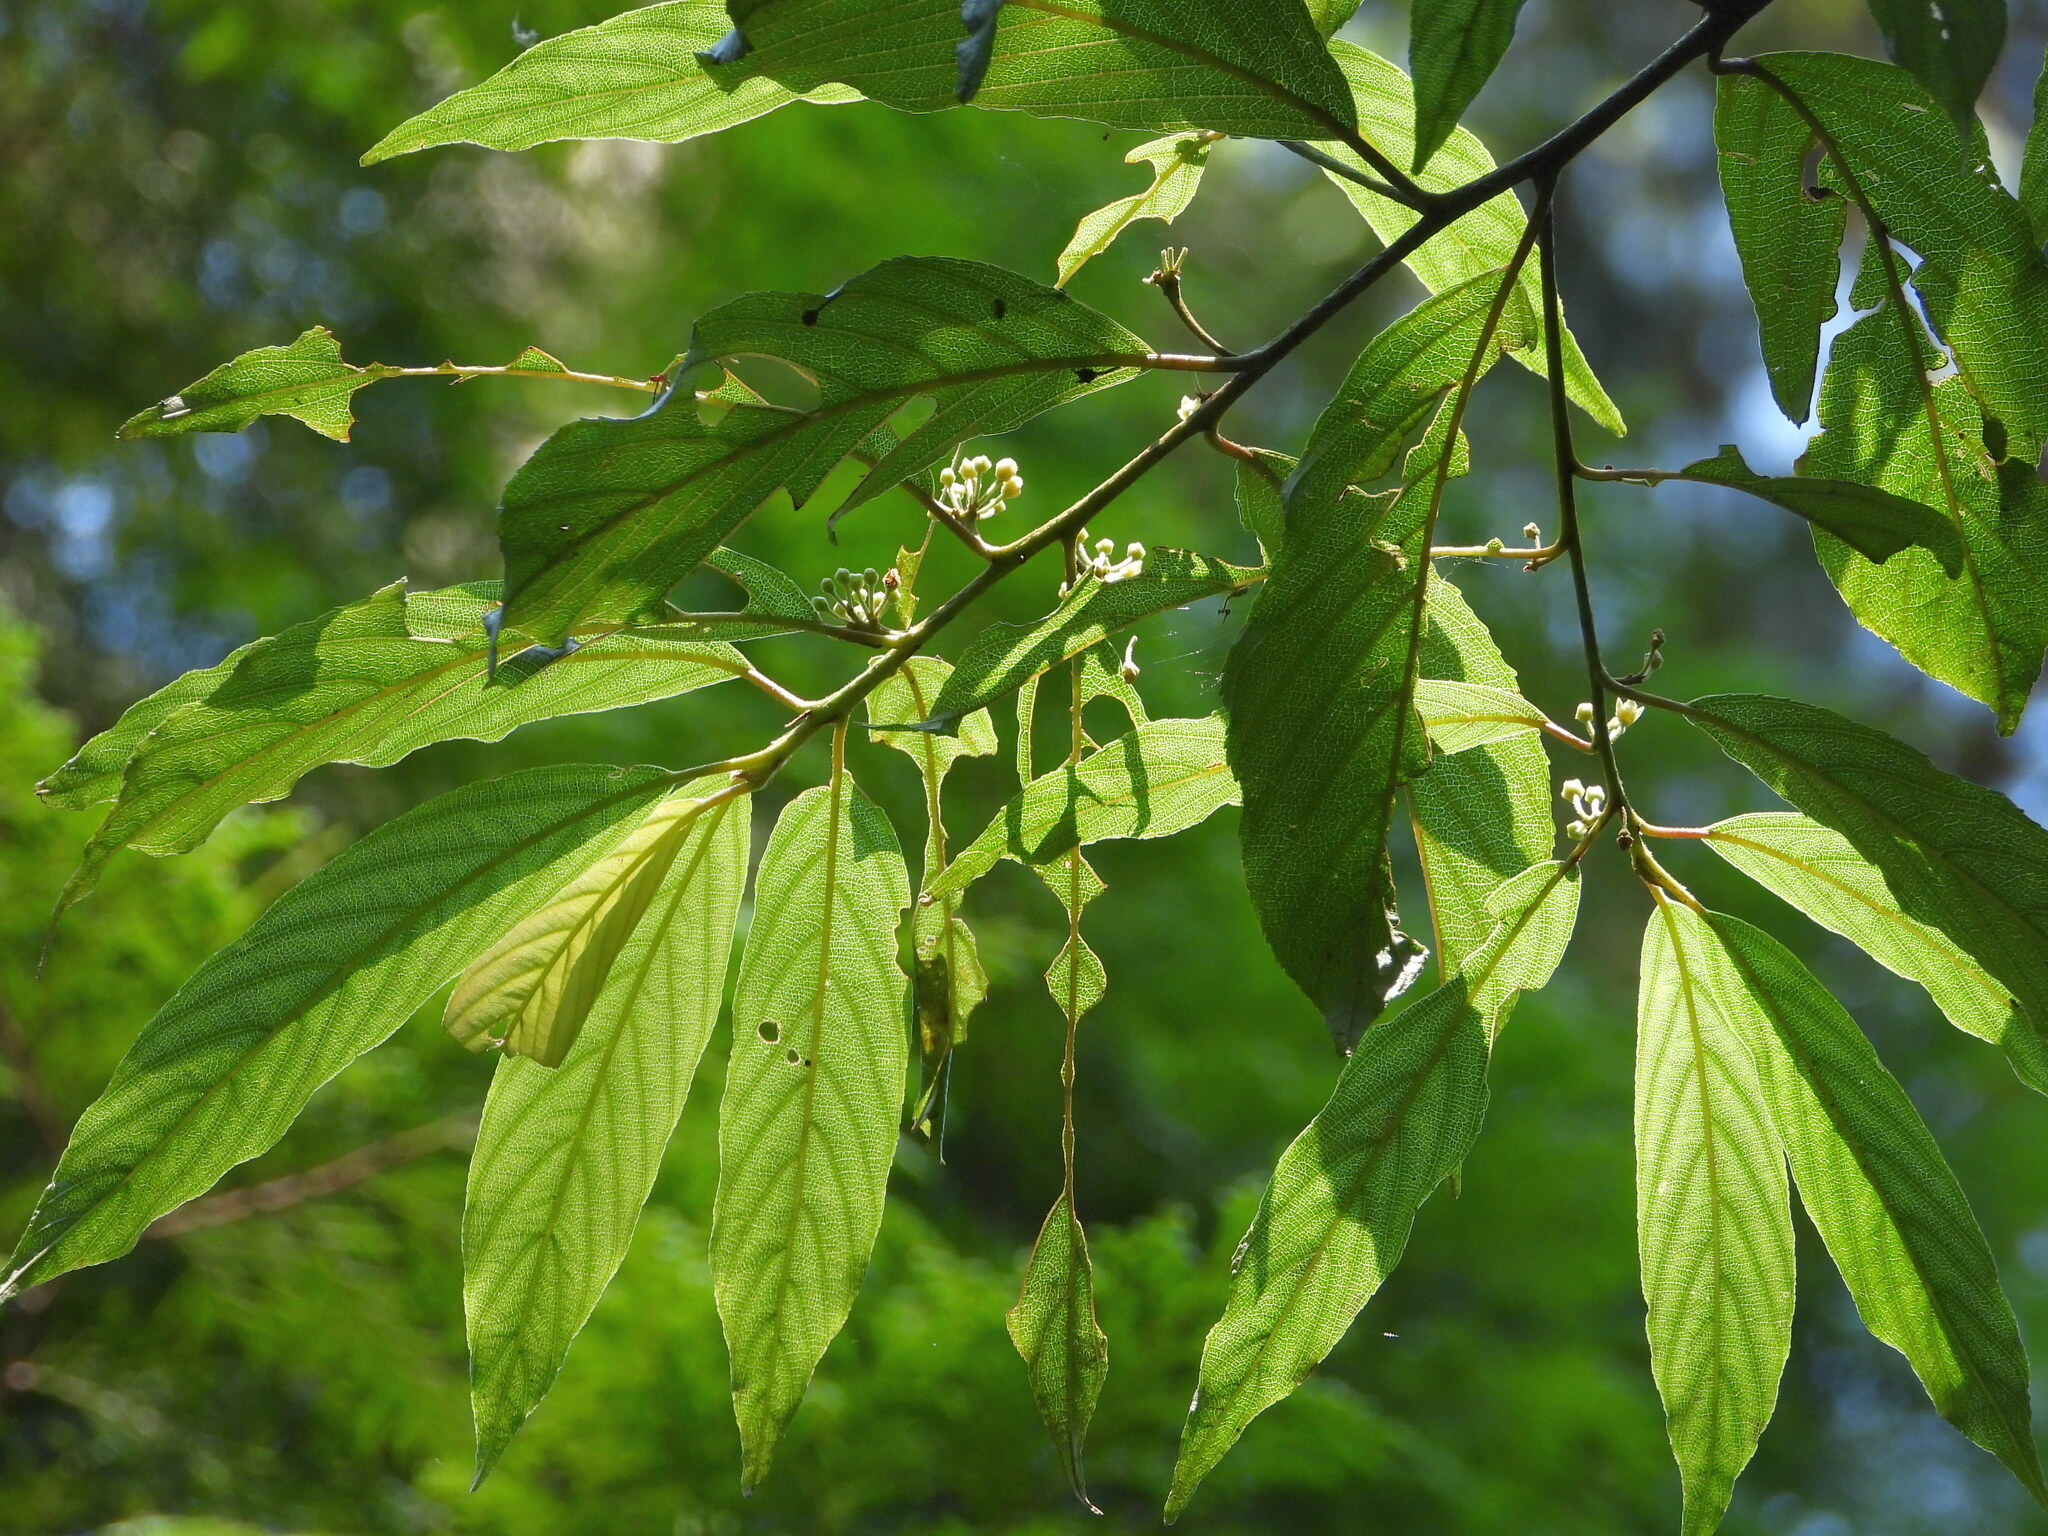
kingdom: Plantae
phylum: Tracheophyta
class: Magnoliopsida
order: Rosales
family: Rhamnaceae
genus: Frangula
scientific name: Frangula crenata
